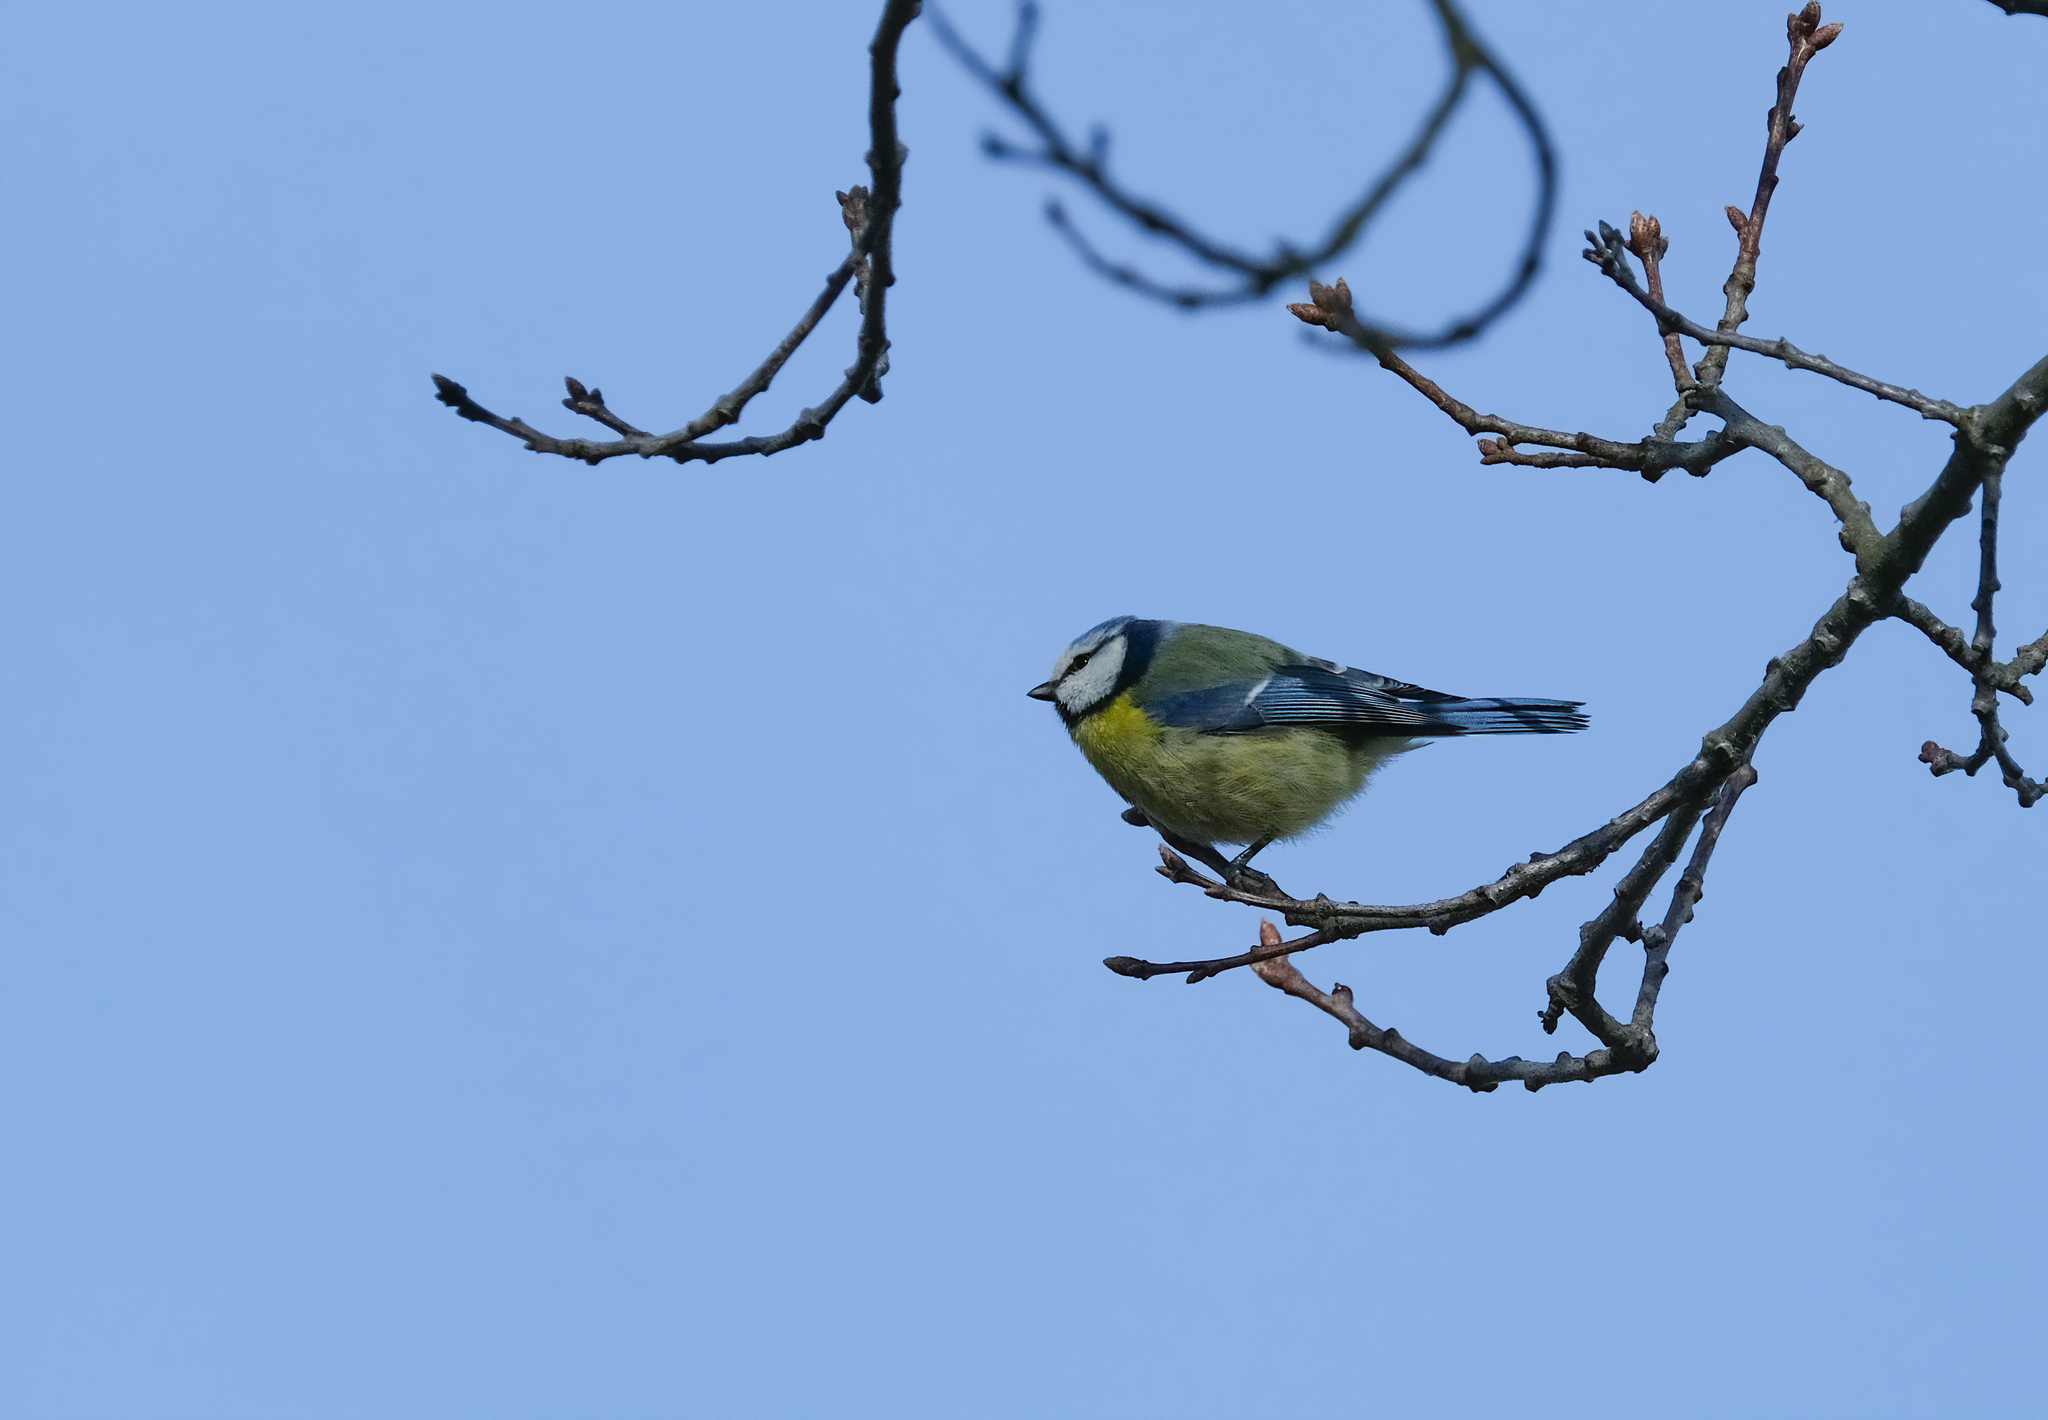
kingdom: Animalia
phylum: Chordata
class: Aves
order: Passeriformes
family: Paridae
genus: Cyanistes
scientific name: Cyanistes caeruleus
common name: Eurasian blue tit
